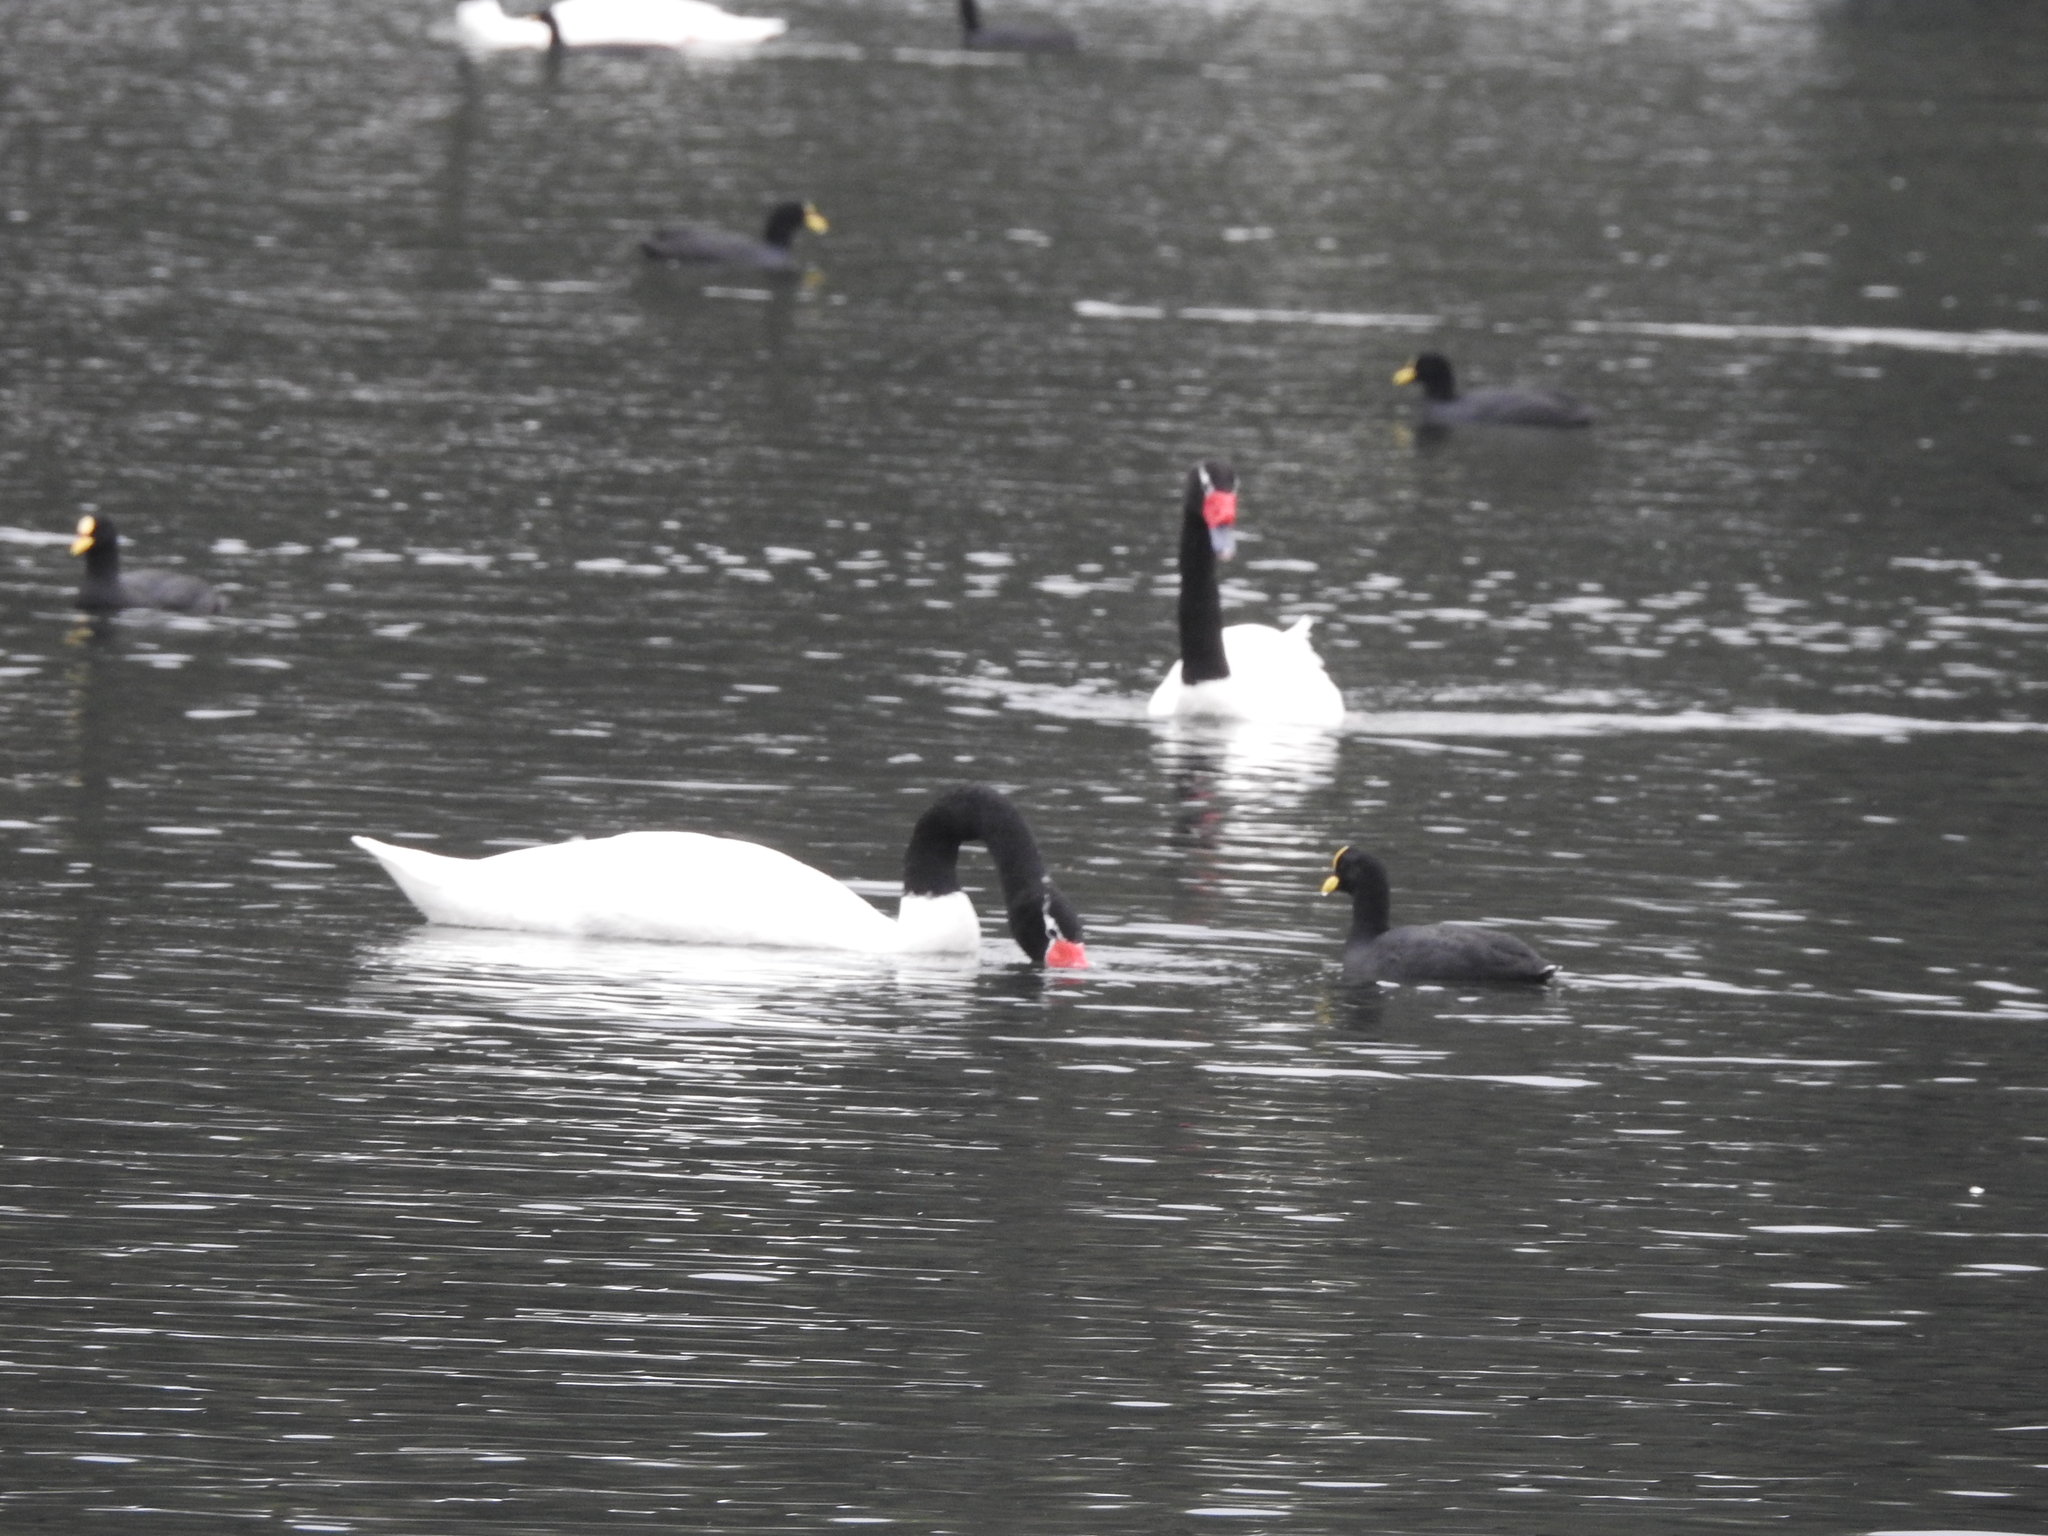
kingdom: Animalia
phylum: Chordata
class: Aves
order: Anseriformes
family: Anatidae
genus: Cygnus
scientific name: Cygnus melancoryphus
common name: Black-necked swan
